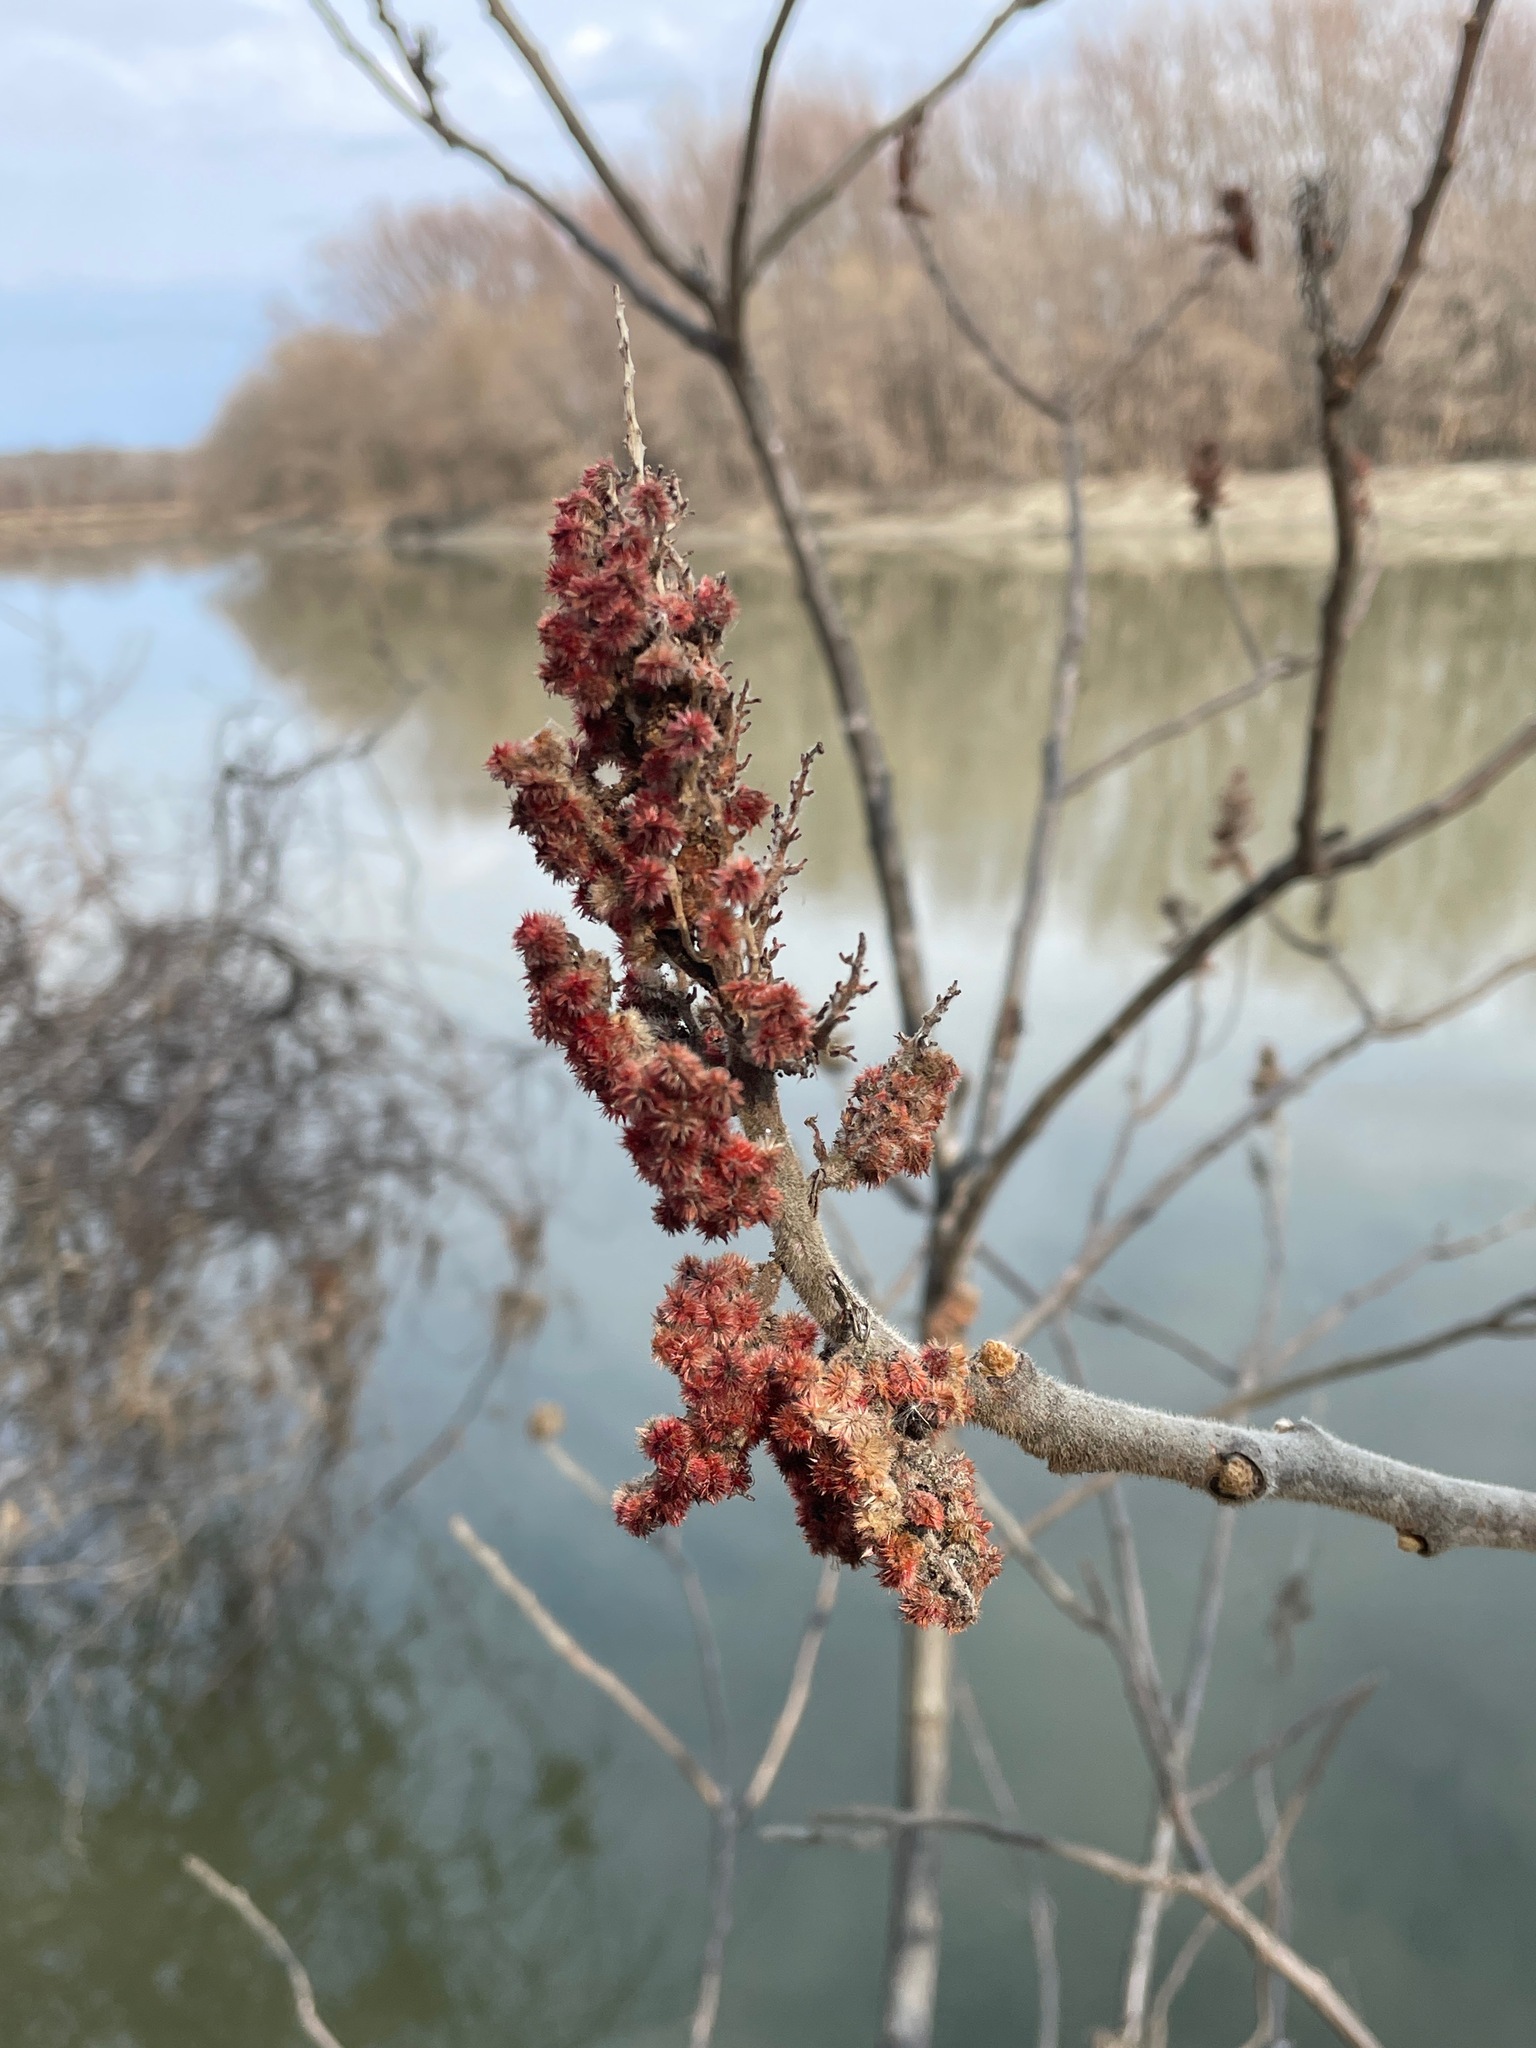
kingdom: Plantae
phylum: Tracheophyta
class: Magnoliopsida
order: Sapindales
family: Anacardiaceae
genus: Rhus
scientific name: Rhus typhina
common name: Staghorn sumac
